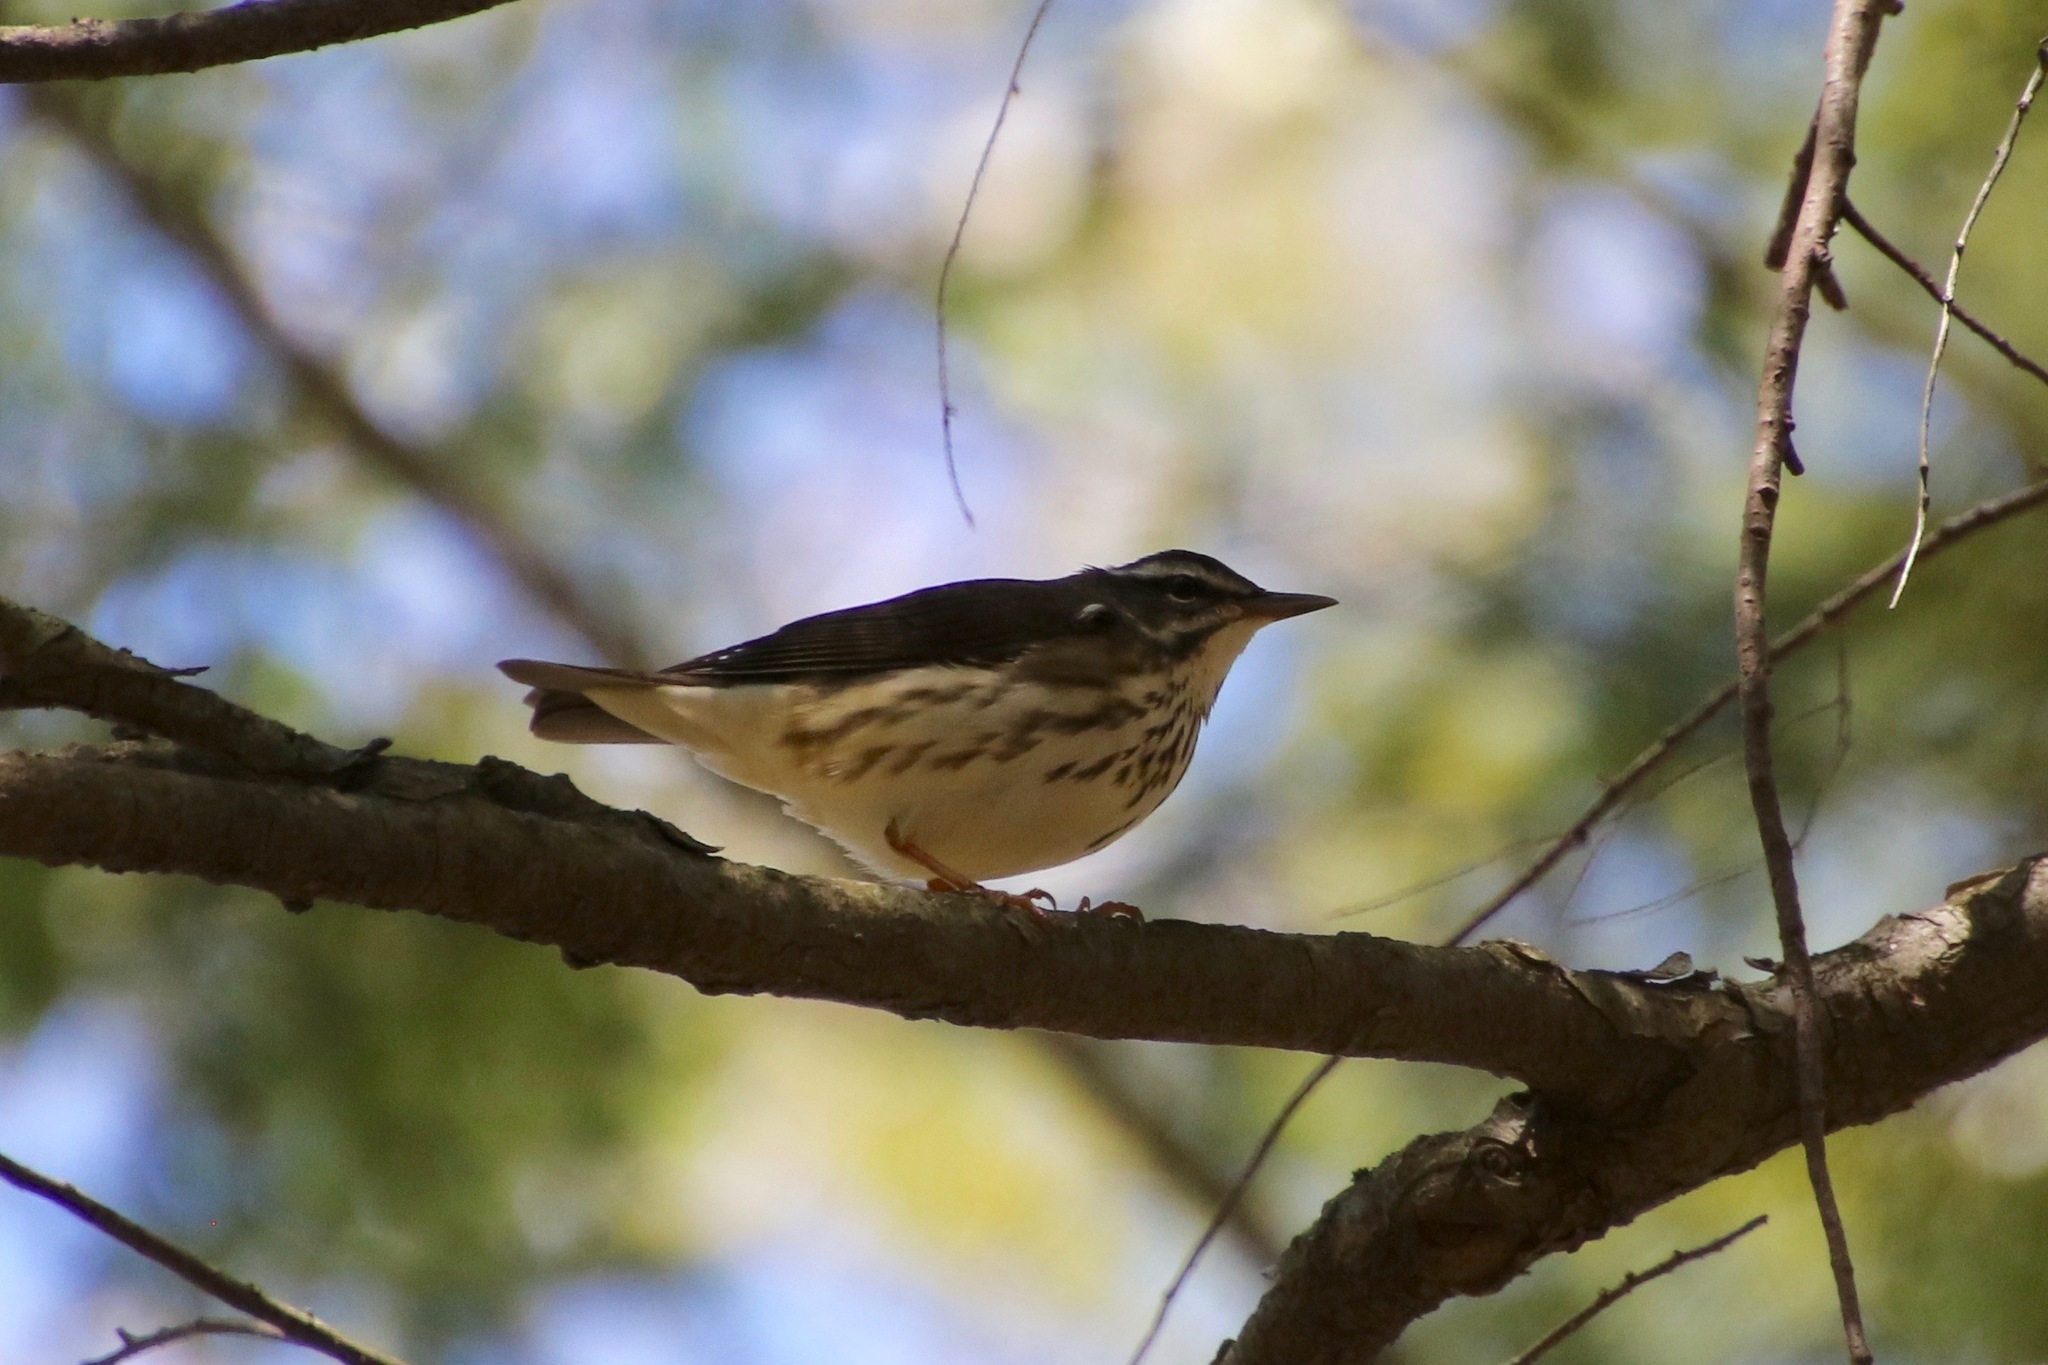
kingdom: Animalia
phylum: Chordata
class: Aves
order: Passeriformes
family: Parulidae
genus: Parkesia
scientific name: Parkesia motacilla
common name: Louisiana waterthrush
